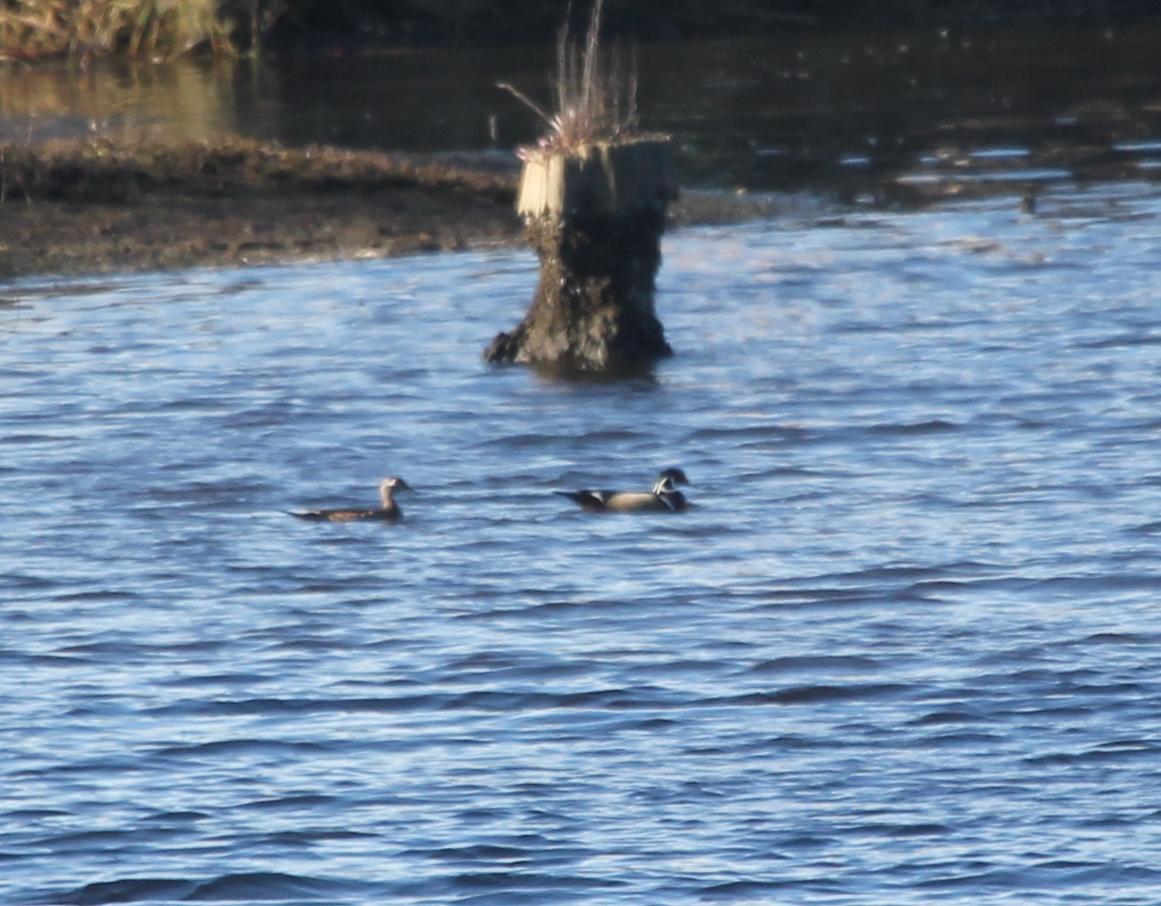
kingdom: Animalia
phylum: Chordata
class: Aves
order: Anseriformes
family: Anatidae
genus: Aix
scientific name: Aix sponsa
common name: Wood duck
